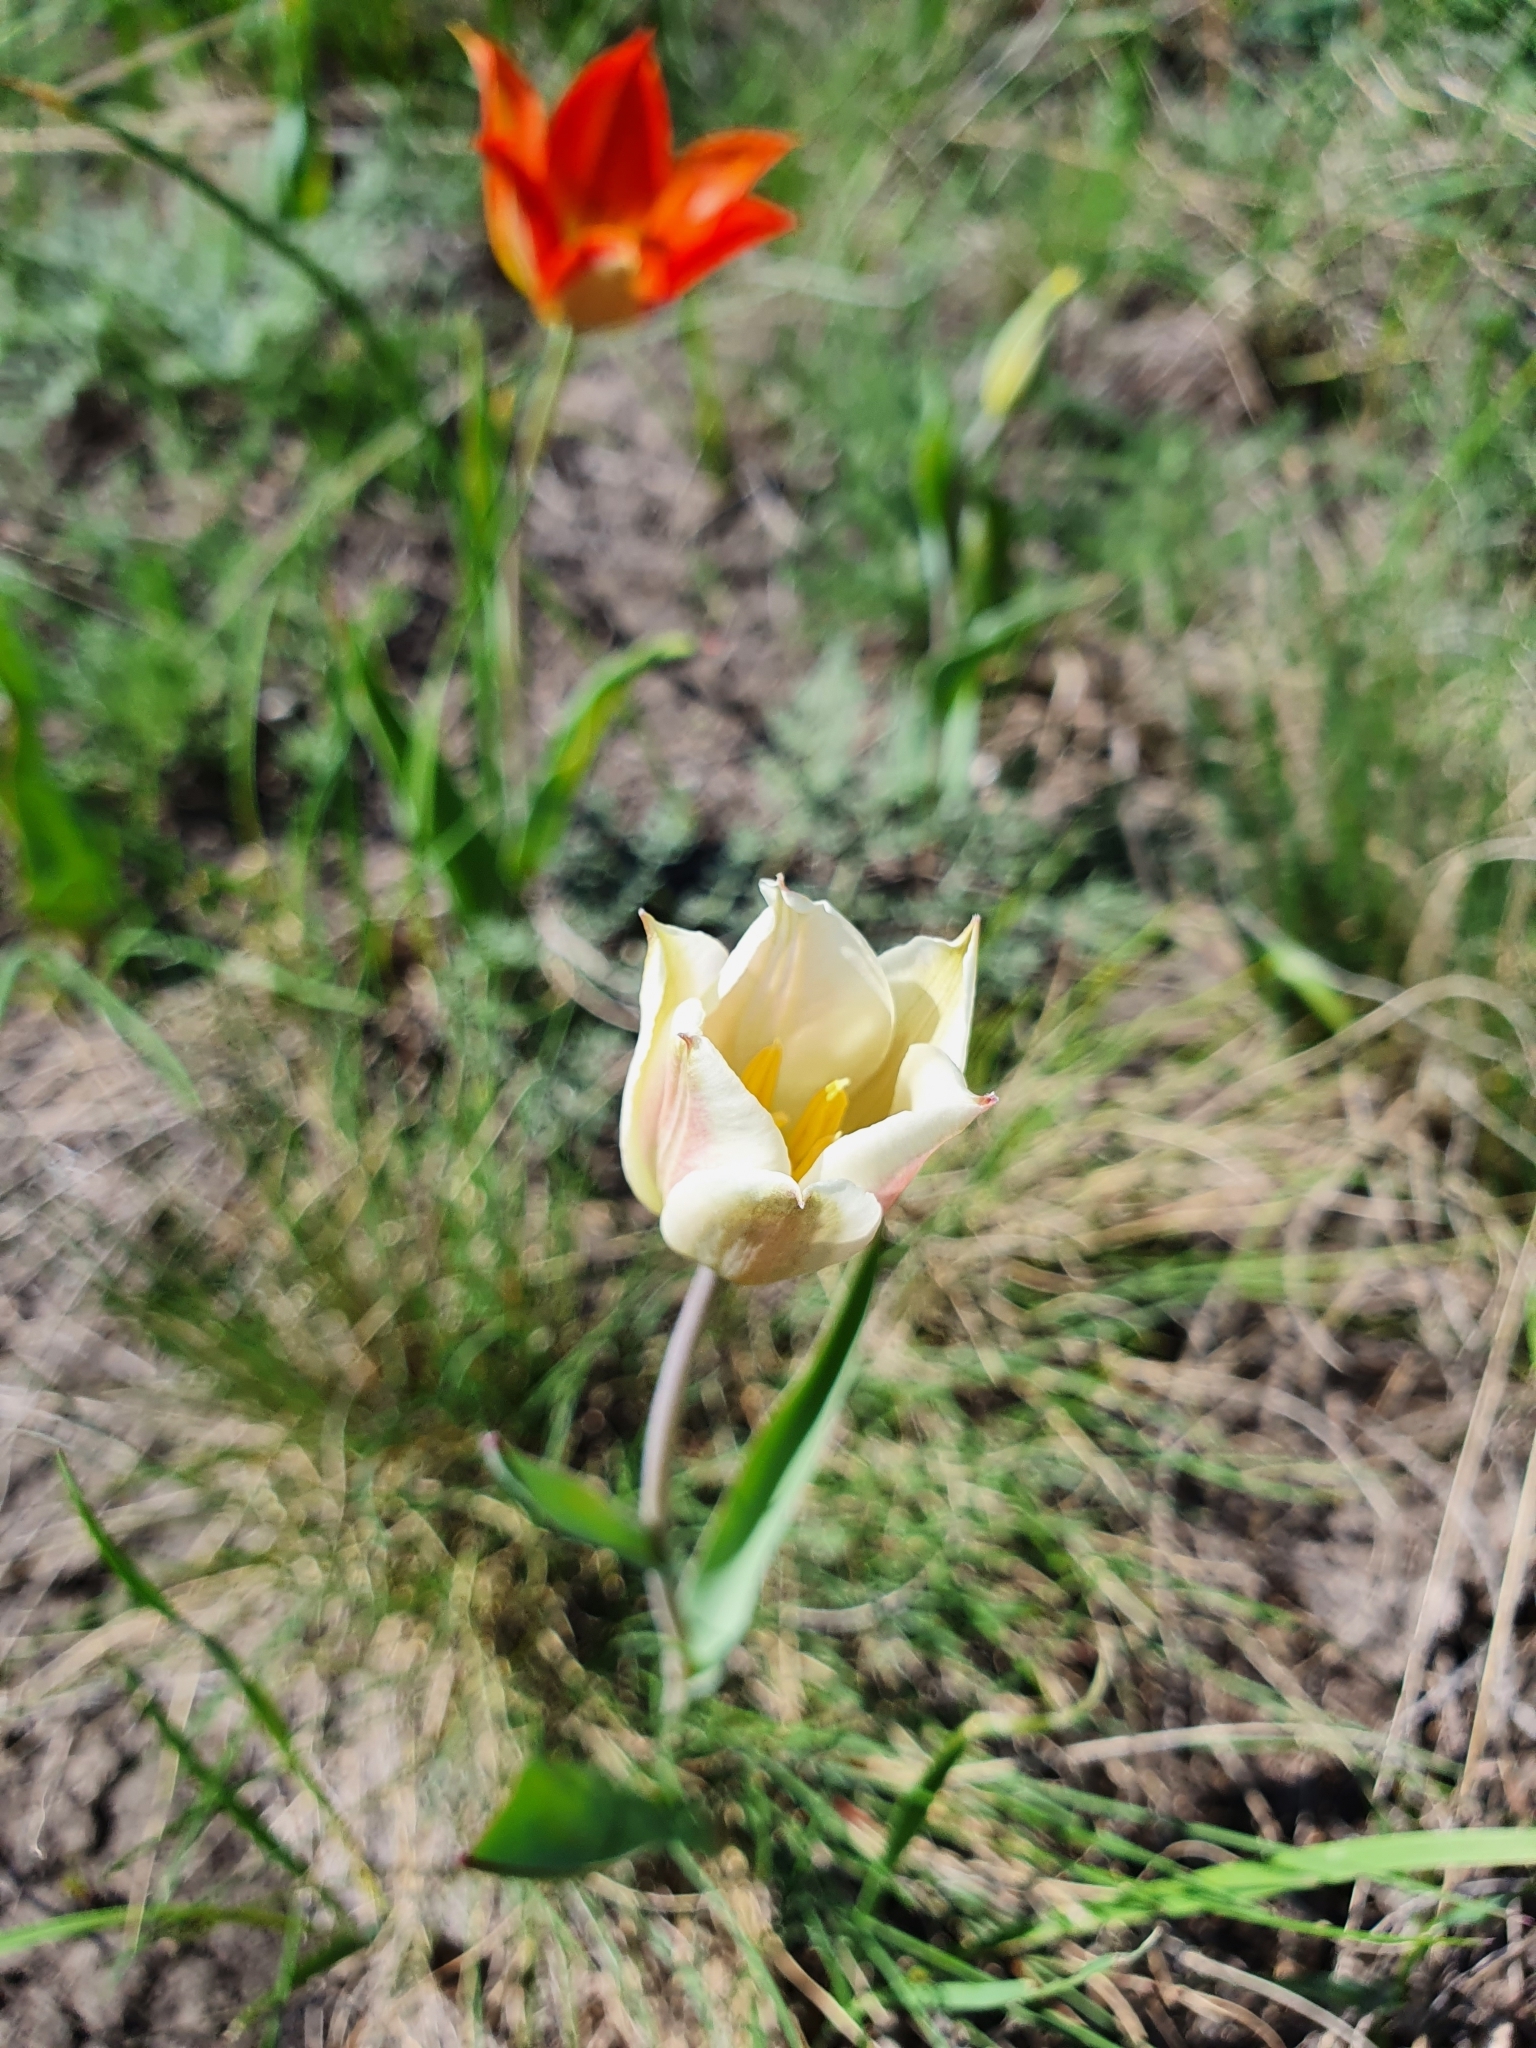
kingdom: Plantae
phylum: Tracheophyta
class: Liliopsida
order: Liliales
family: Liliaceae
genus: Tulipa
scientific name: Tulipa suaveolens
